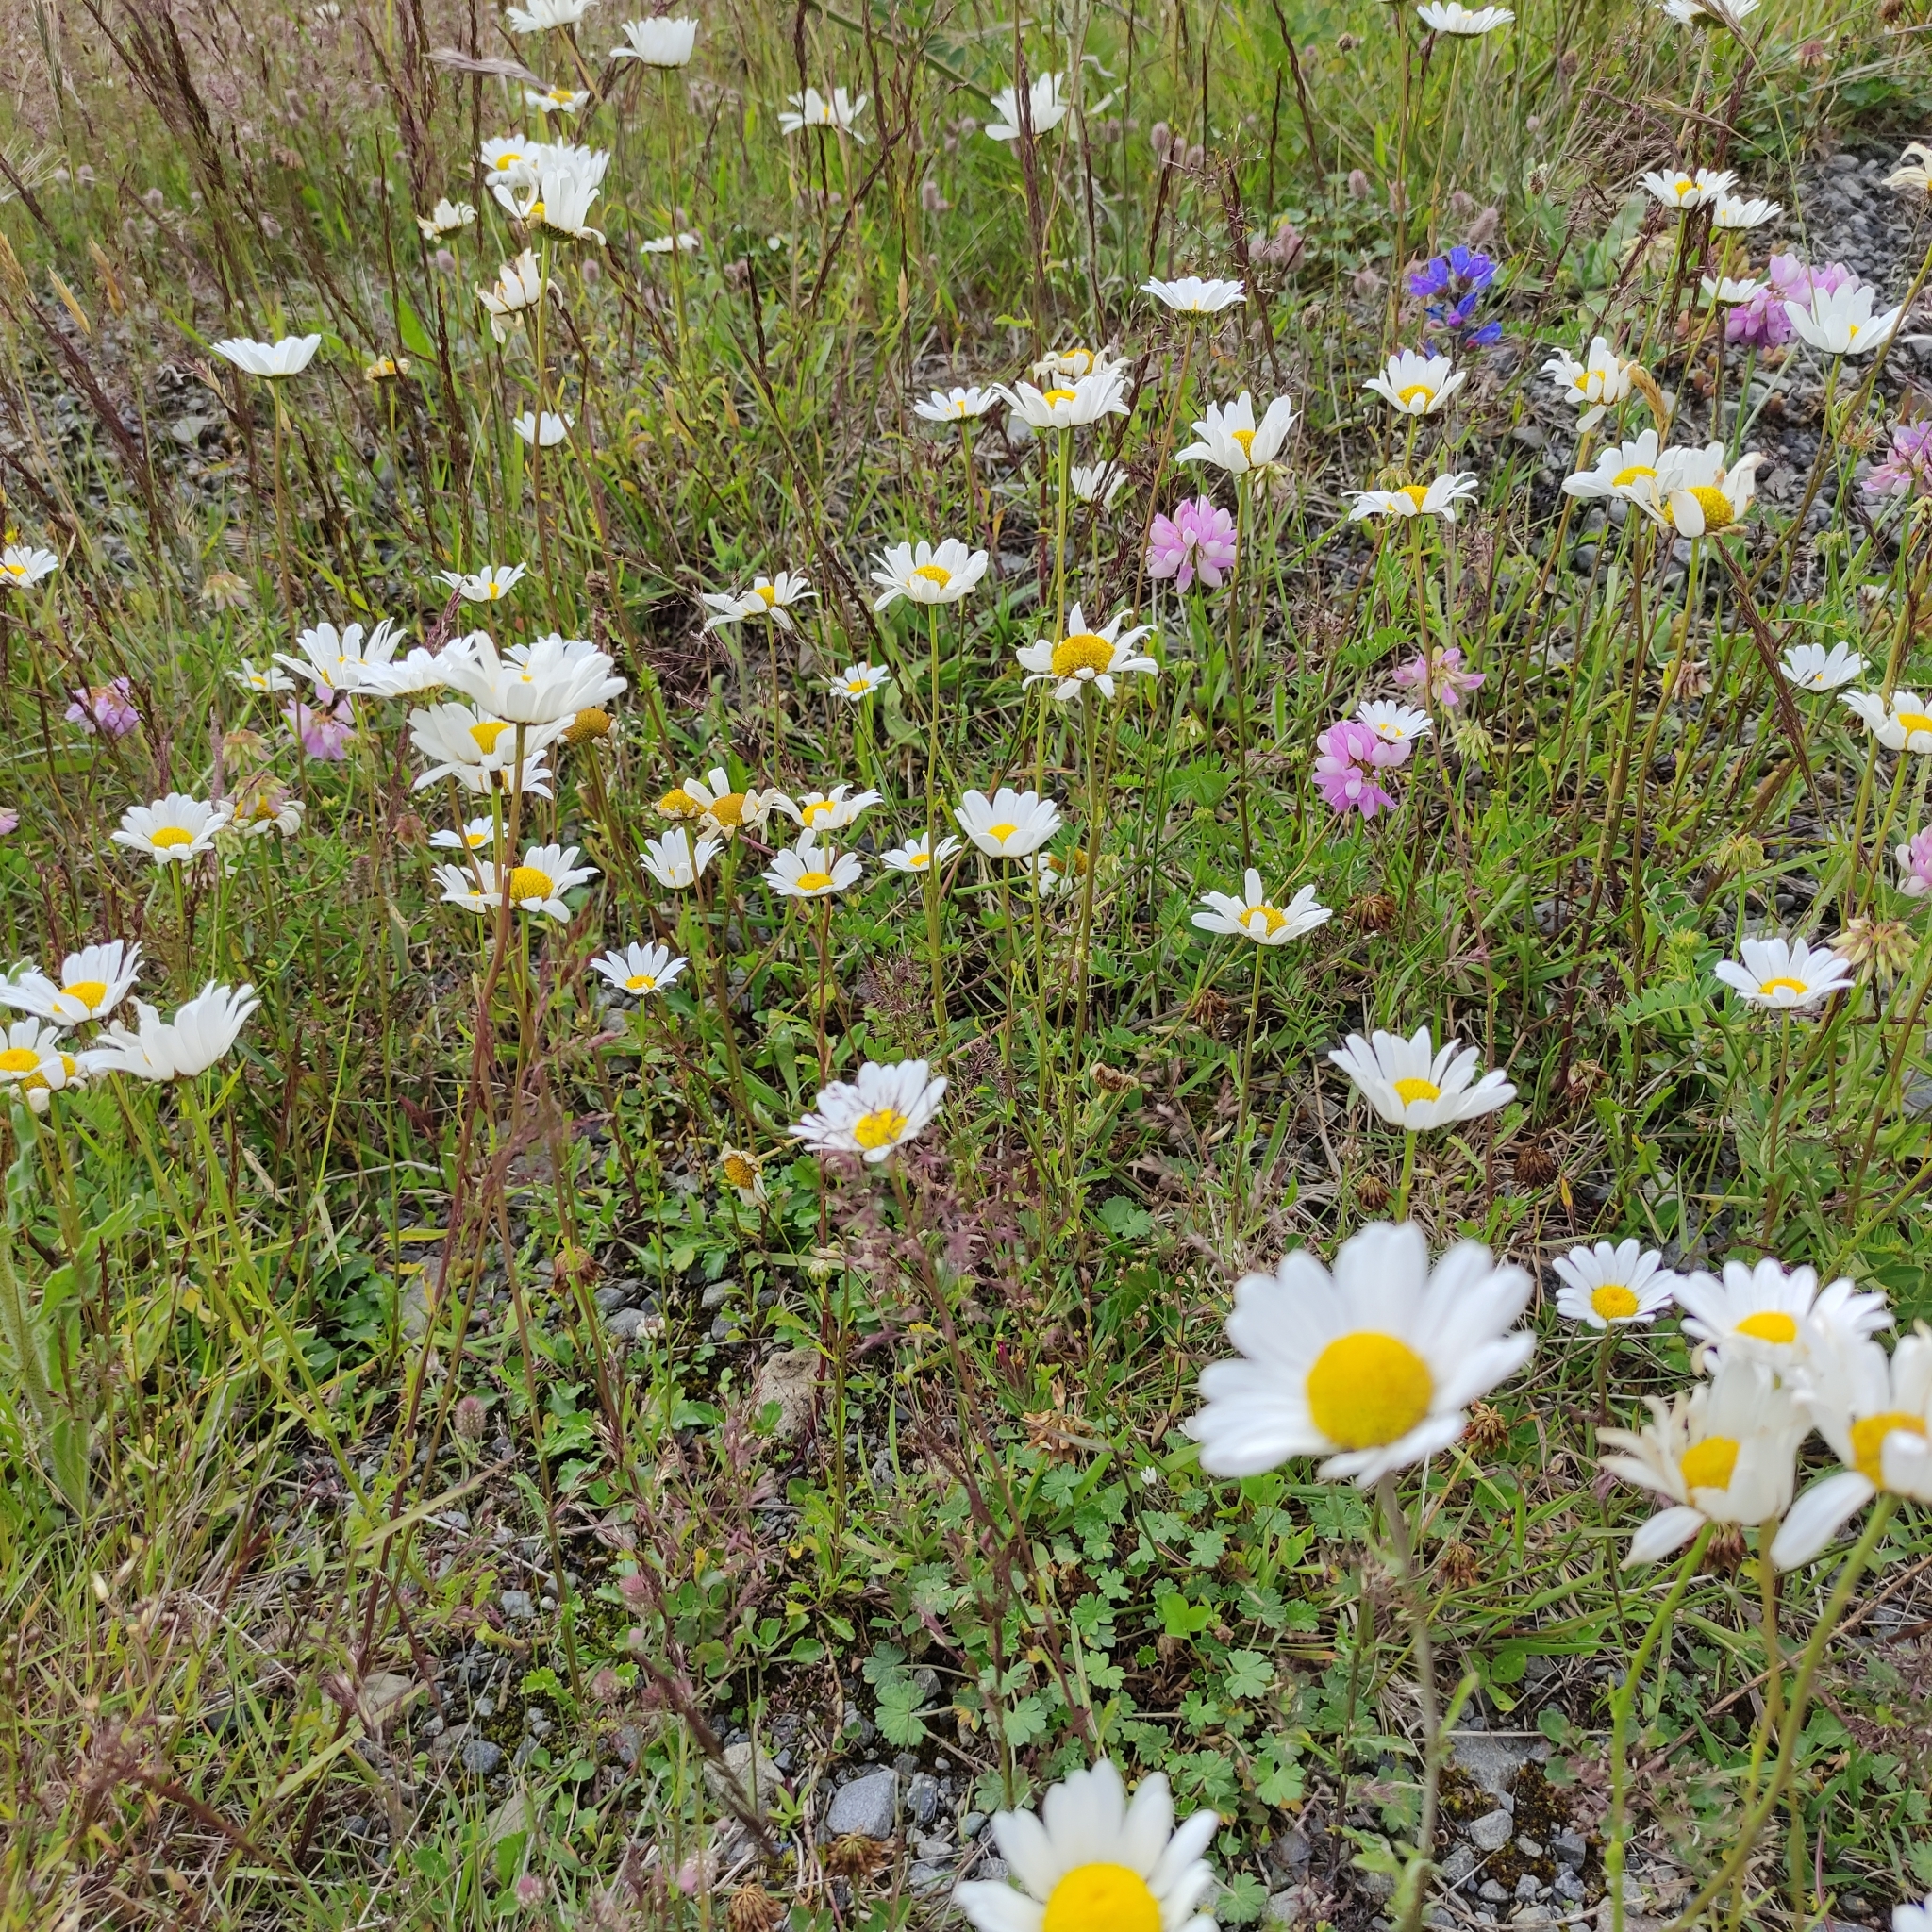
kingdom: Plantae
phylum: Tracheophyta
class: Magnoliopsida
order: Asterales
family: Asteraceae
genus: Leucanthemum
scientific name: Leucanthemum vulgare
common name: Oxeye daisy
